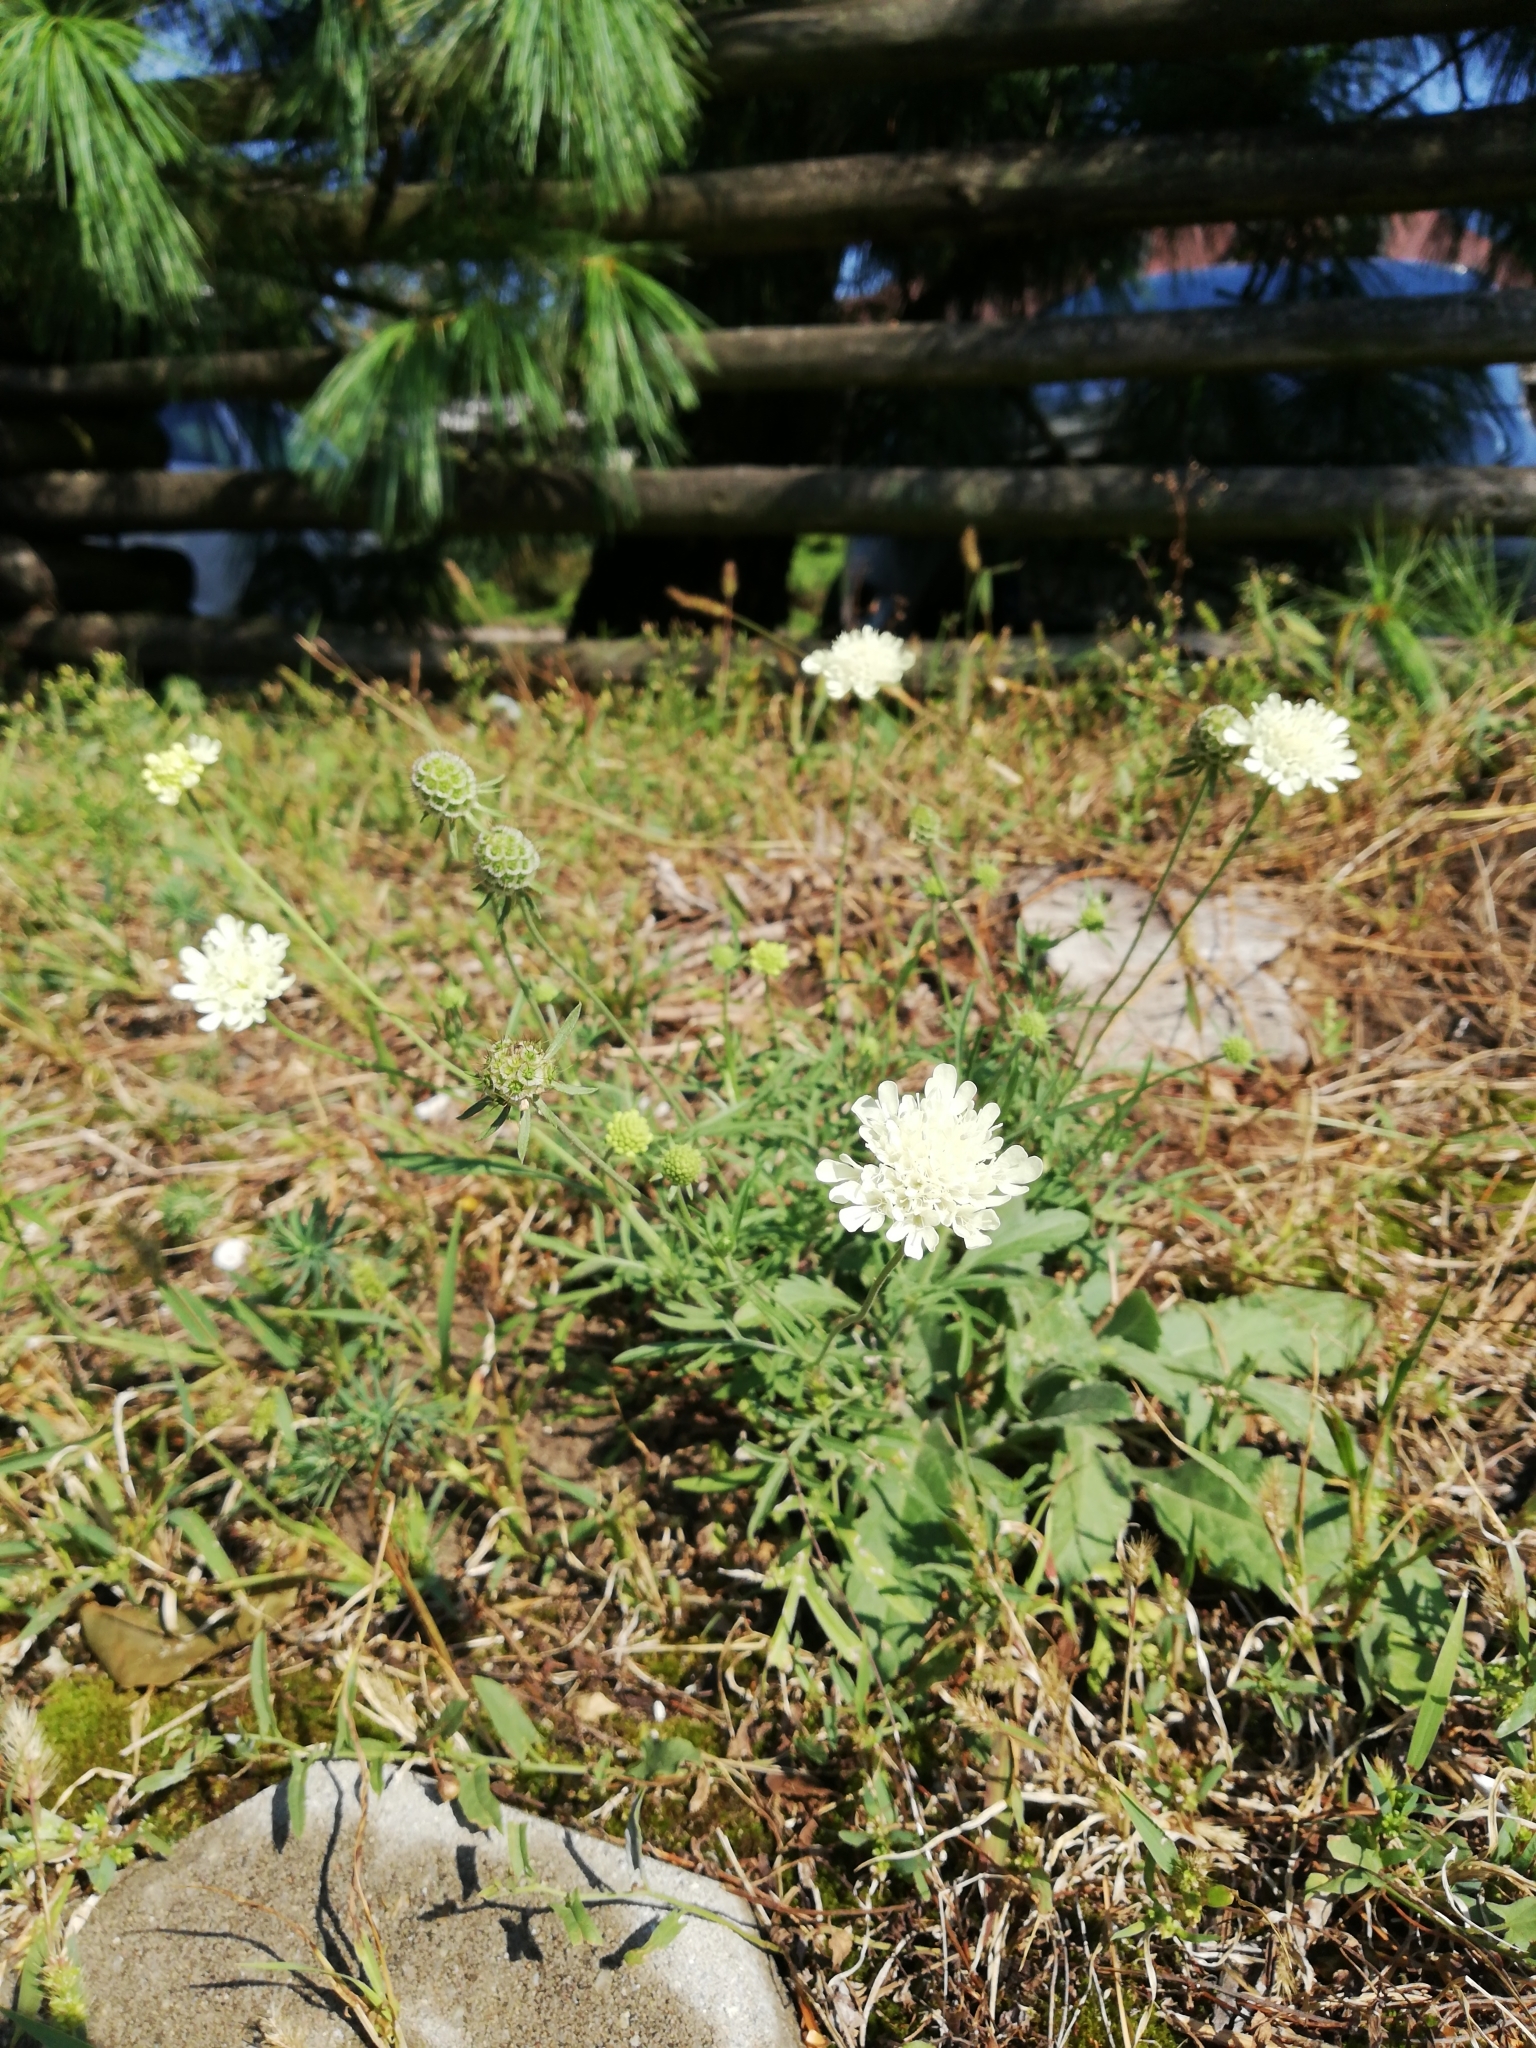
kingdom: Plantae
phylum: Tracheophyta
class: Magnoliopsida
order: Dipsacales
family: Caprifoliaceae
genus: Scabiosa
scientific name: Scabiosa ochroleuca
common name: Cream pincushions
